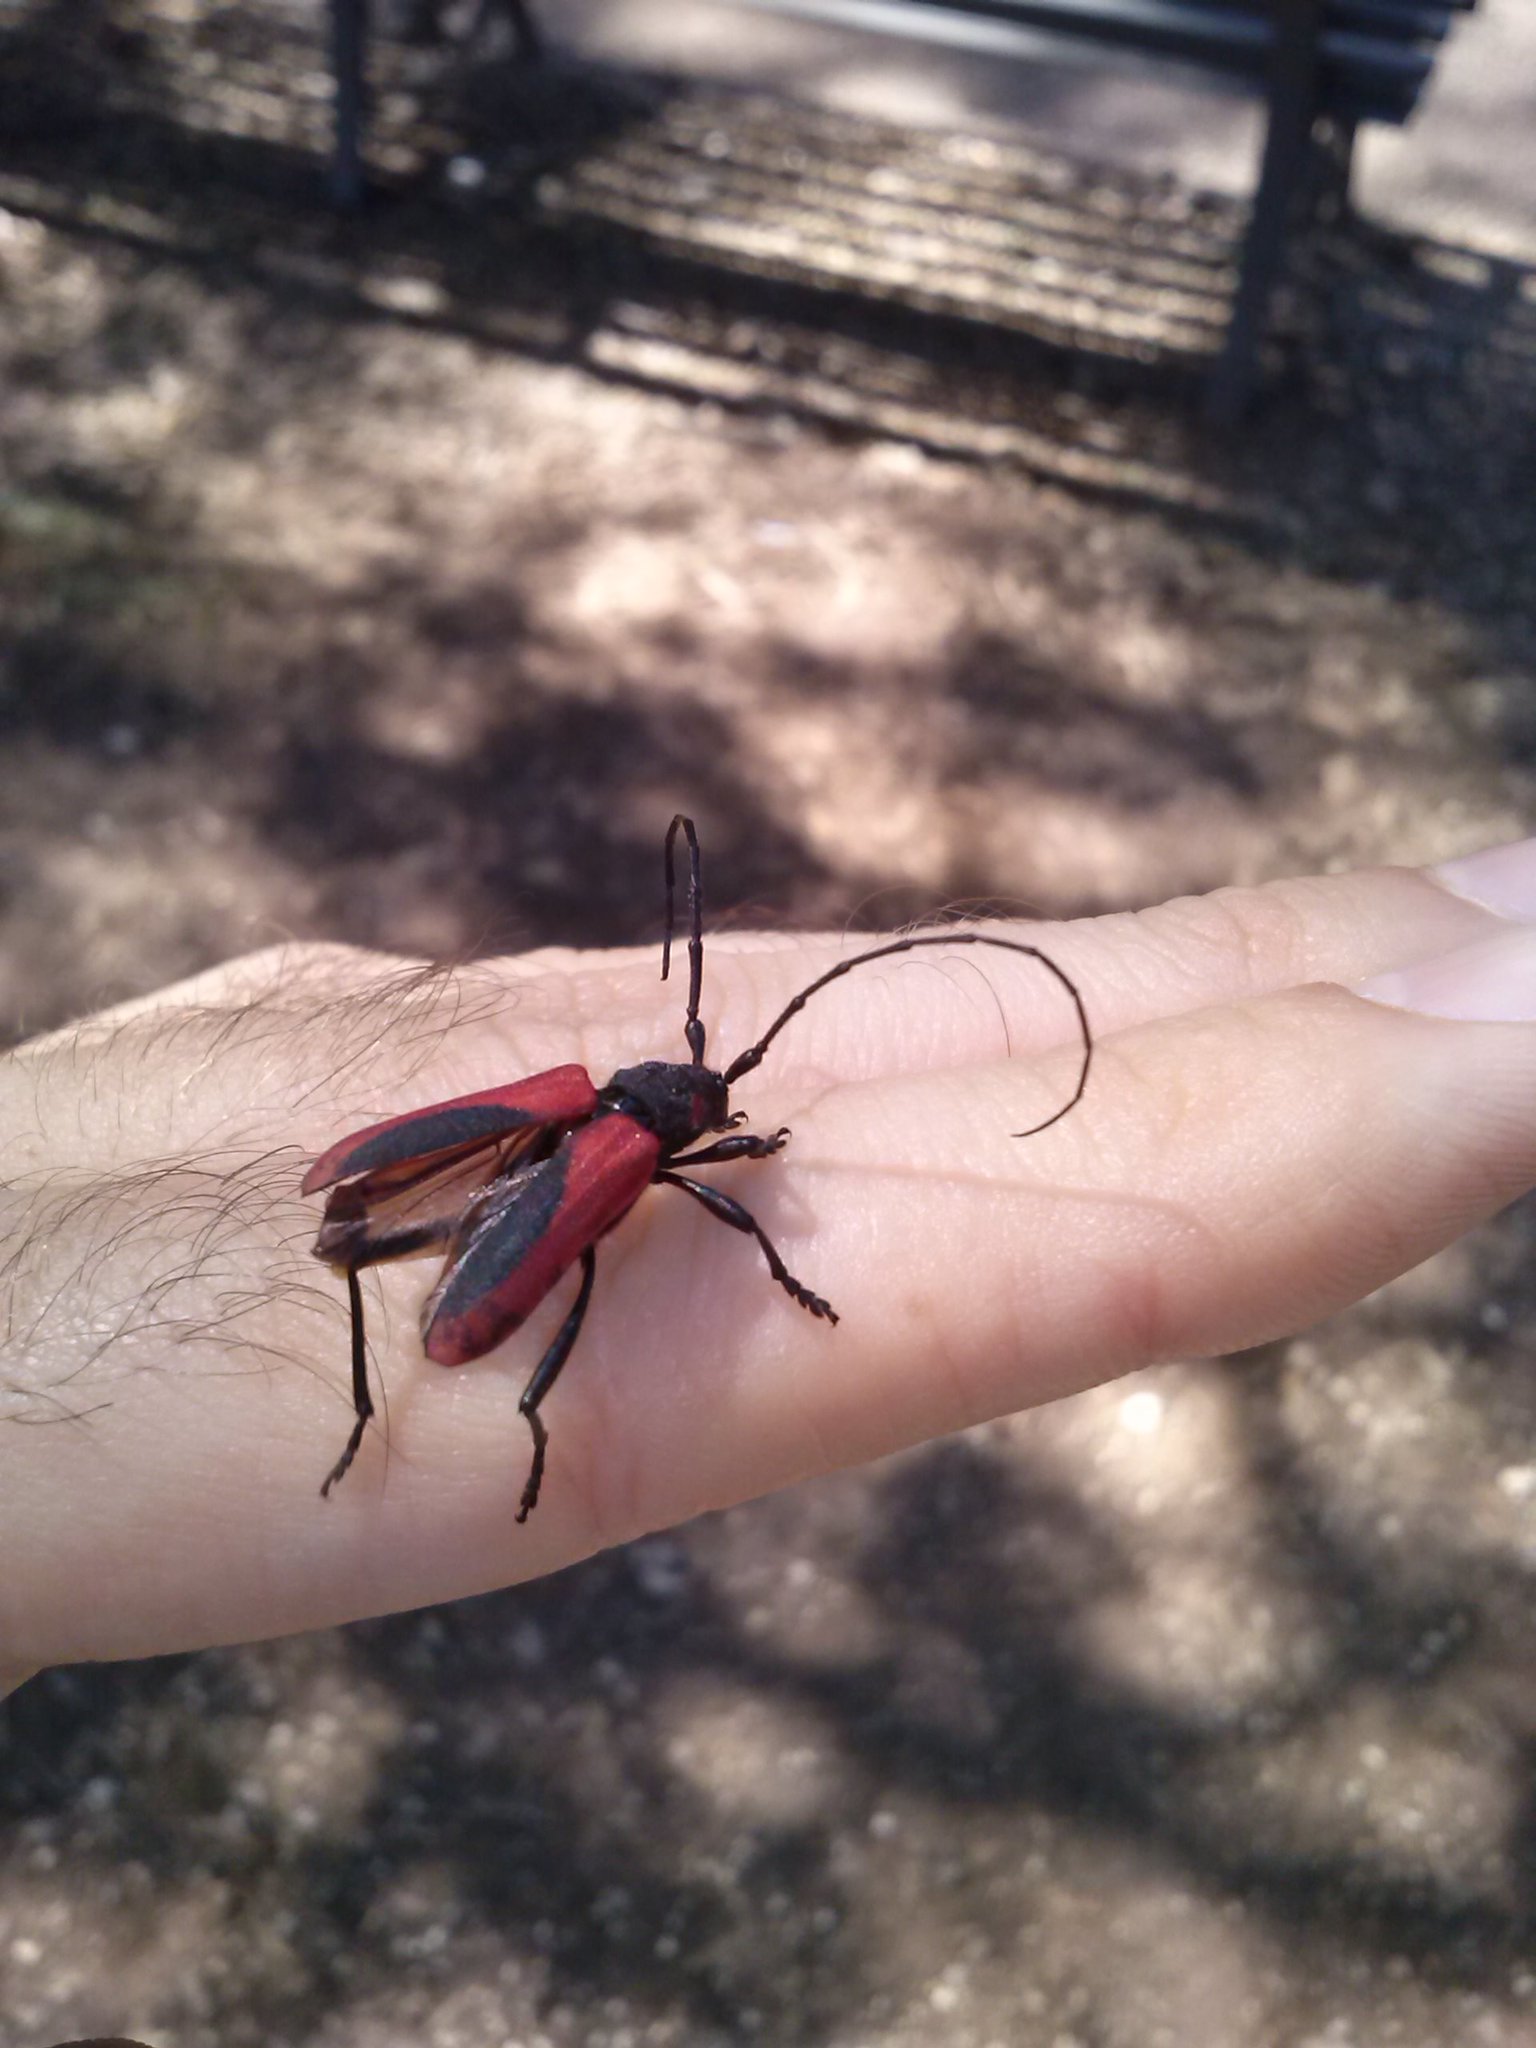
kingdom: Animalia
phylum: Arthropoda
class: Insecta
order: Coleoptera
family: Cerambycidae
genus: Purpuricenus
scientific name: Purpuricenus kaehleri
